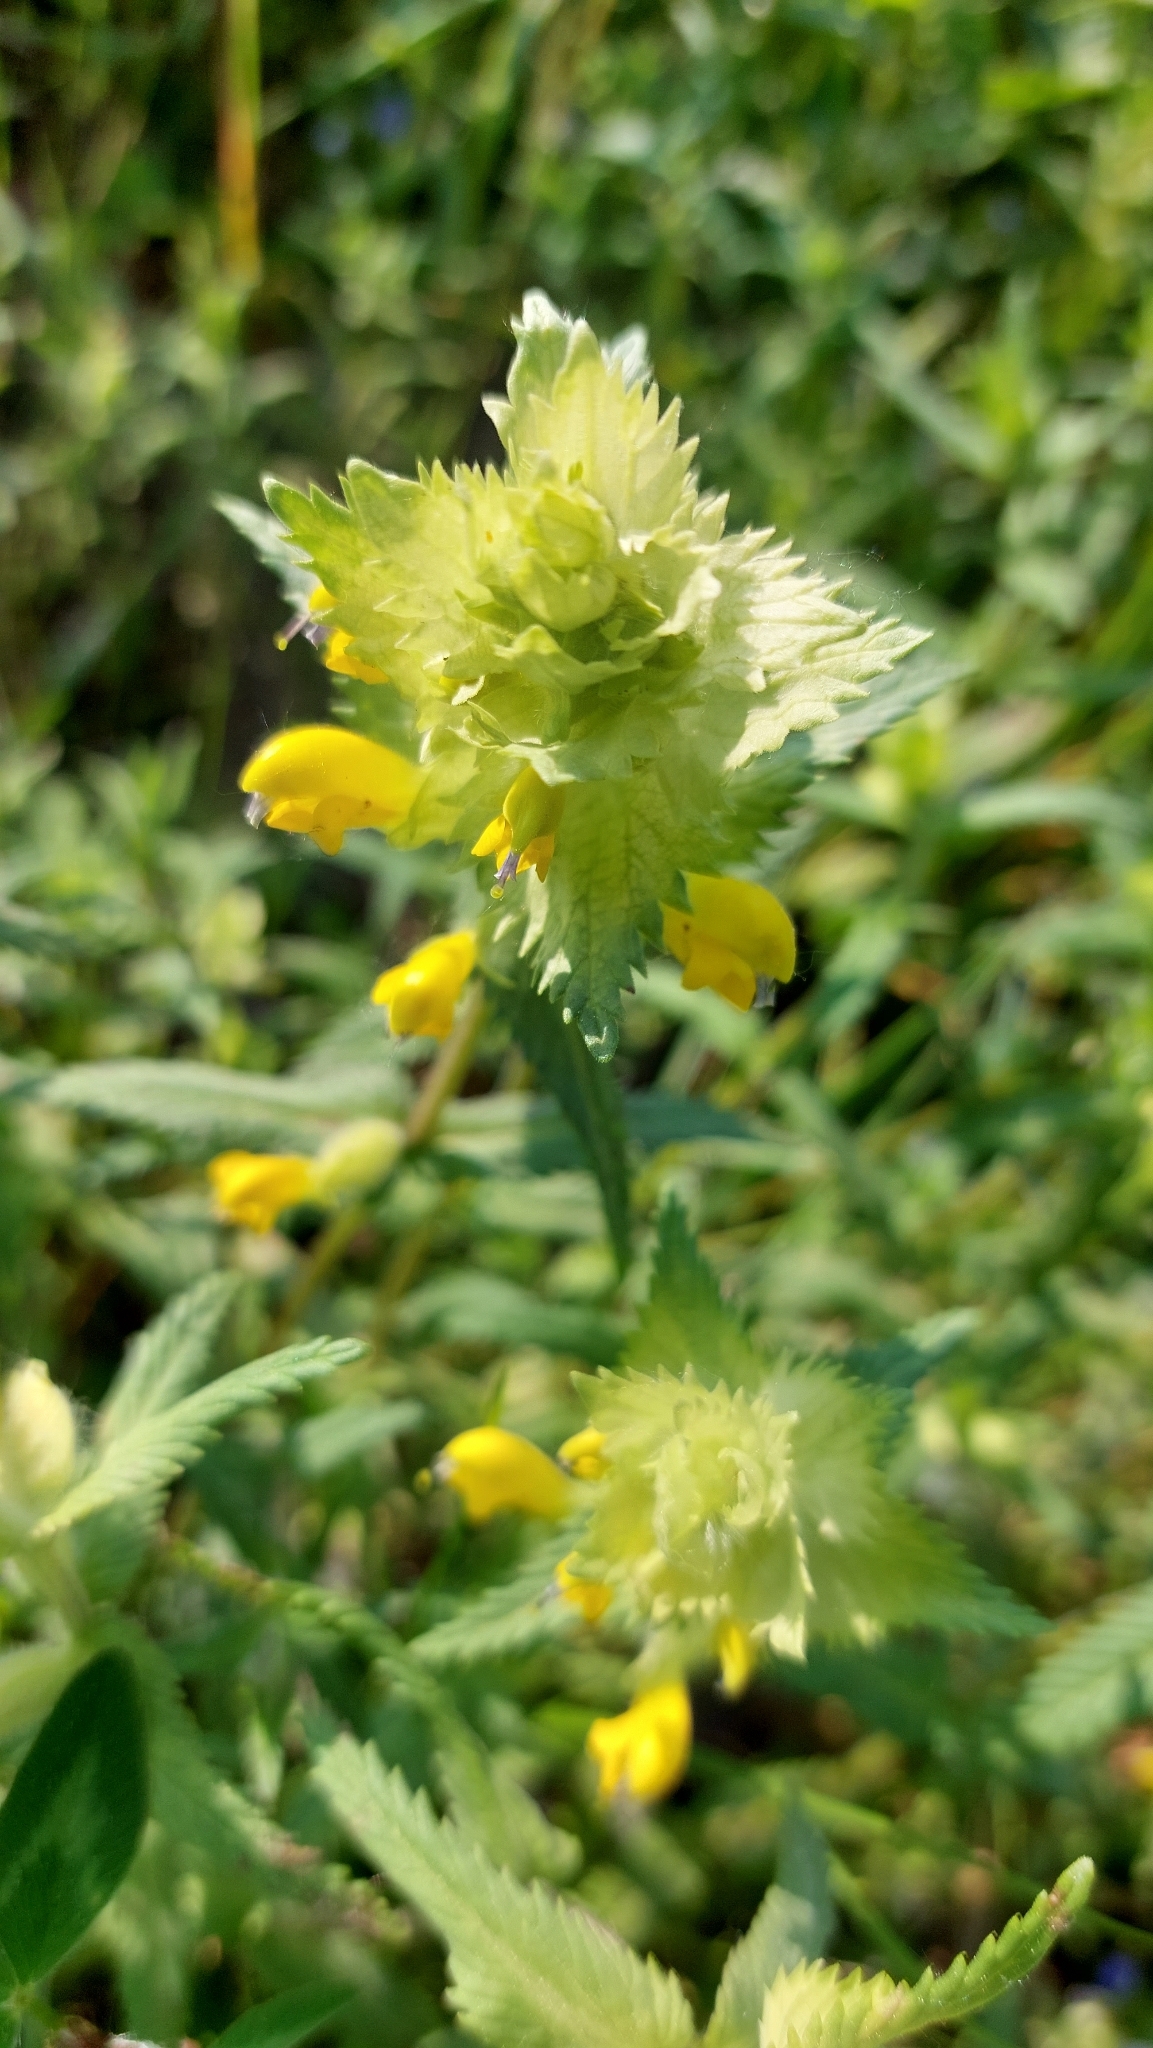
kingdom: Plantae
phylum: Tracheophyta
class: Magnoliopsida
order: Lamiales
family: Orobanchaceae
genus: Rhinanthus
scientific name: Rhinanthus alectorolophus
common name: Greater yellow-rattle
